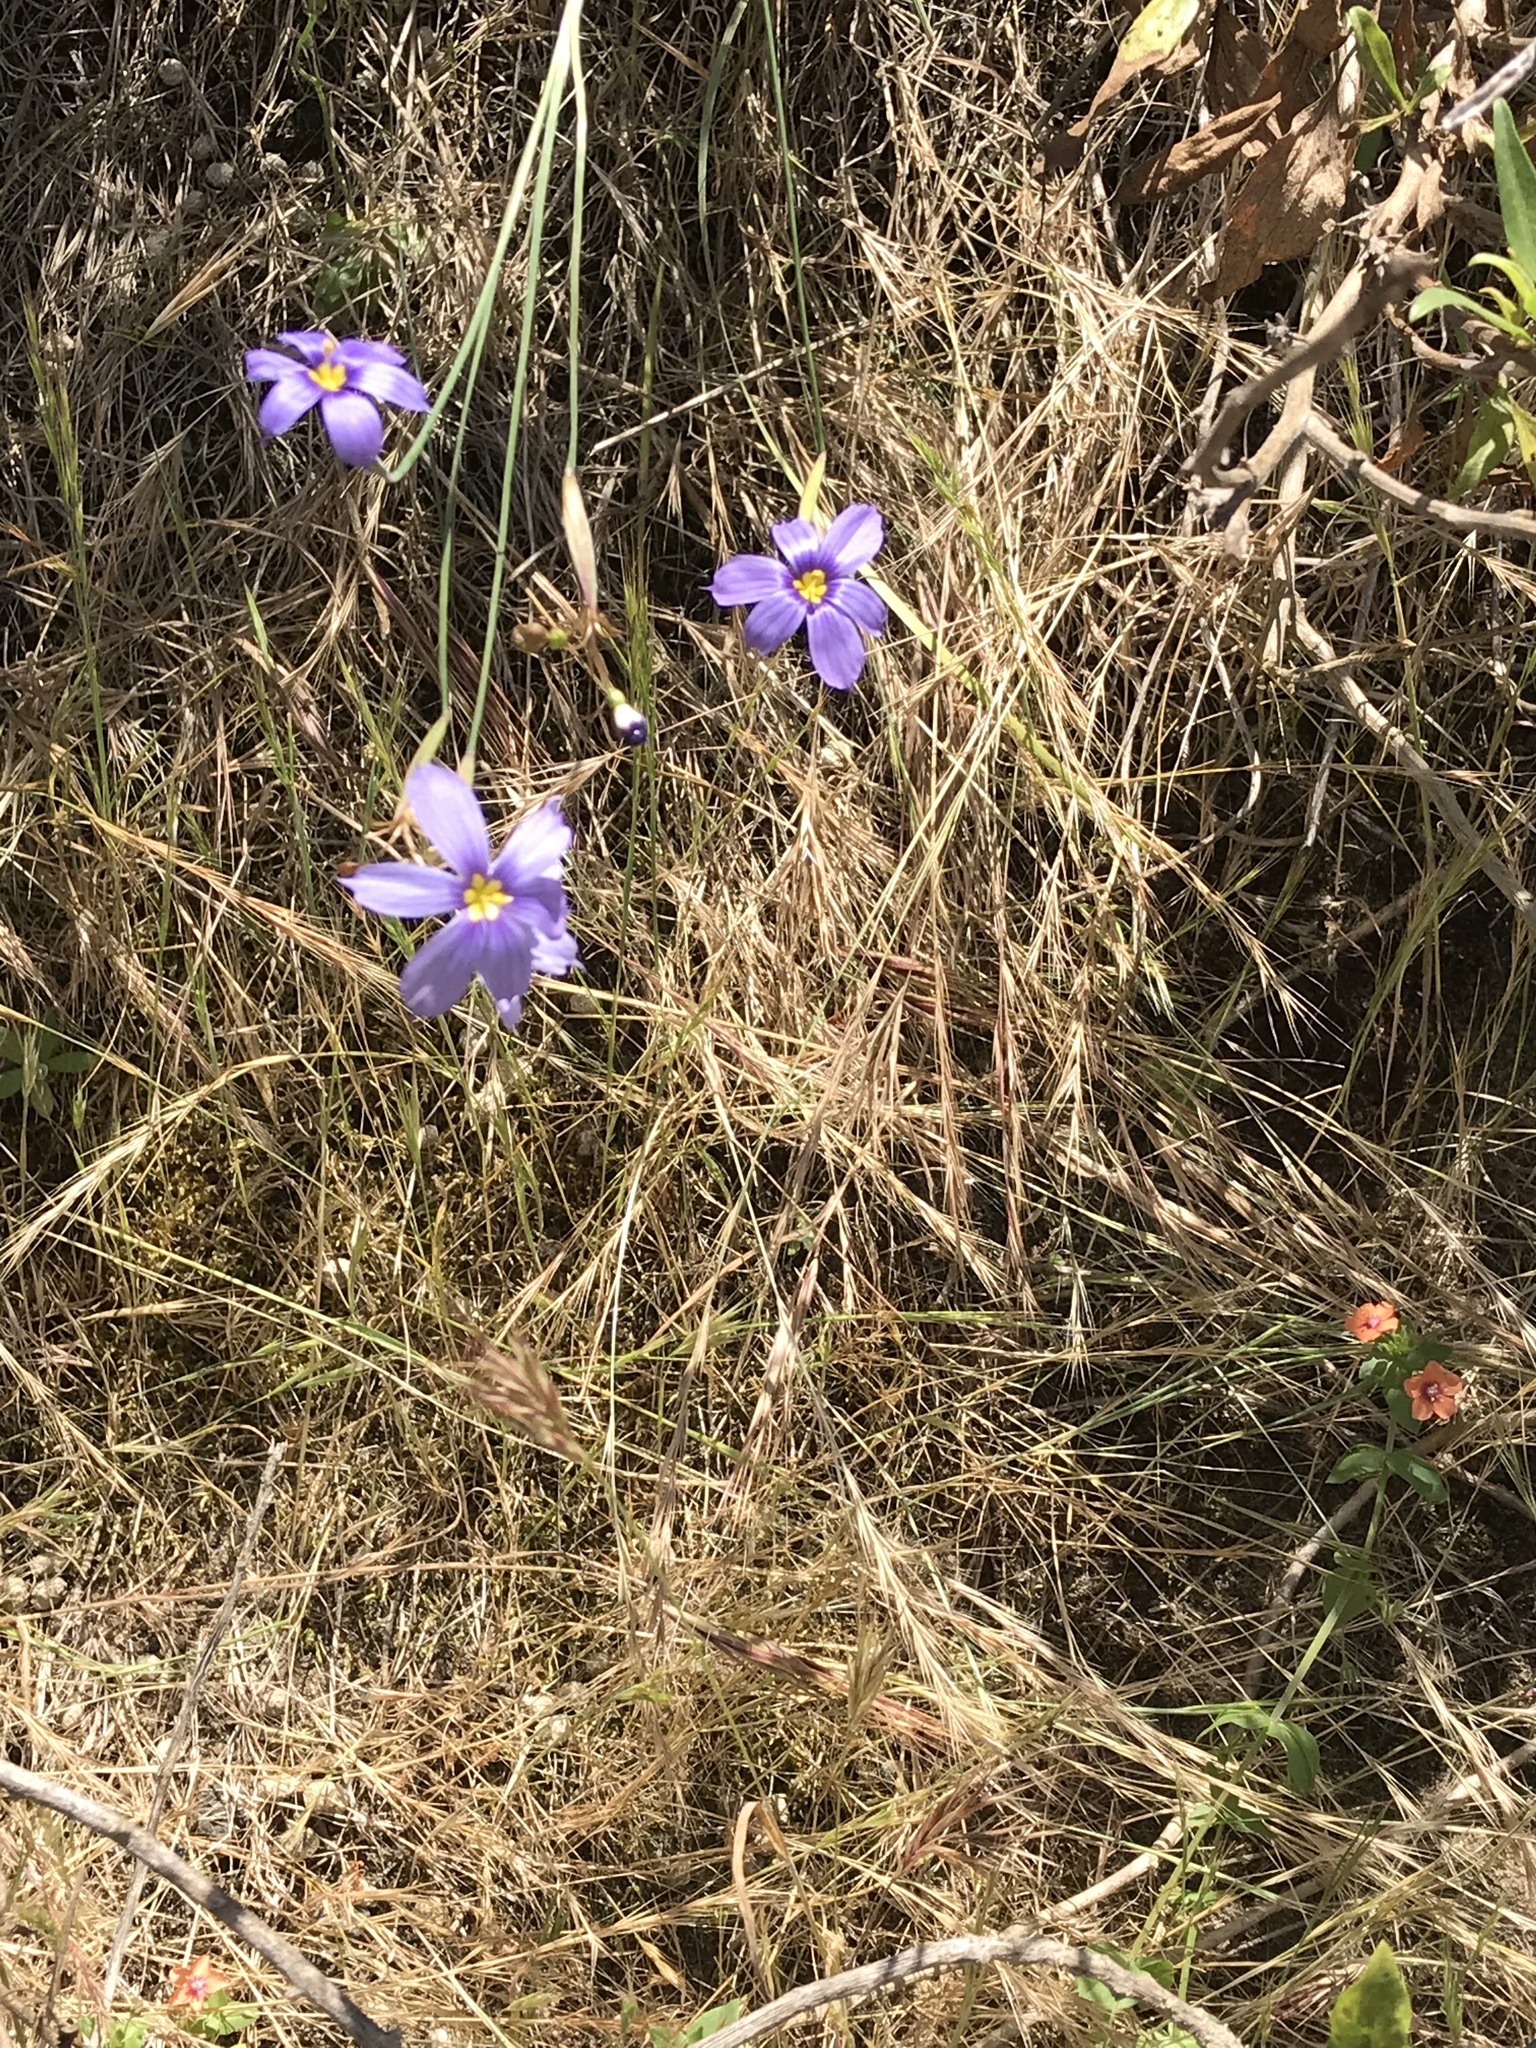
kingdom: Plantae
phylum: Tracheophyta
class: Liliopsida
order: Asparagales
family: Iridaceae
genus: Sisyrinchium
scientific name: Sisyrinchium bellum
